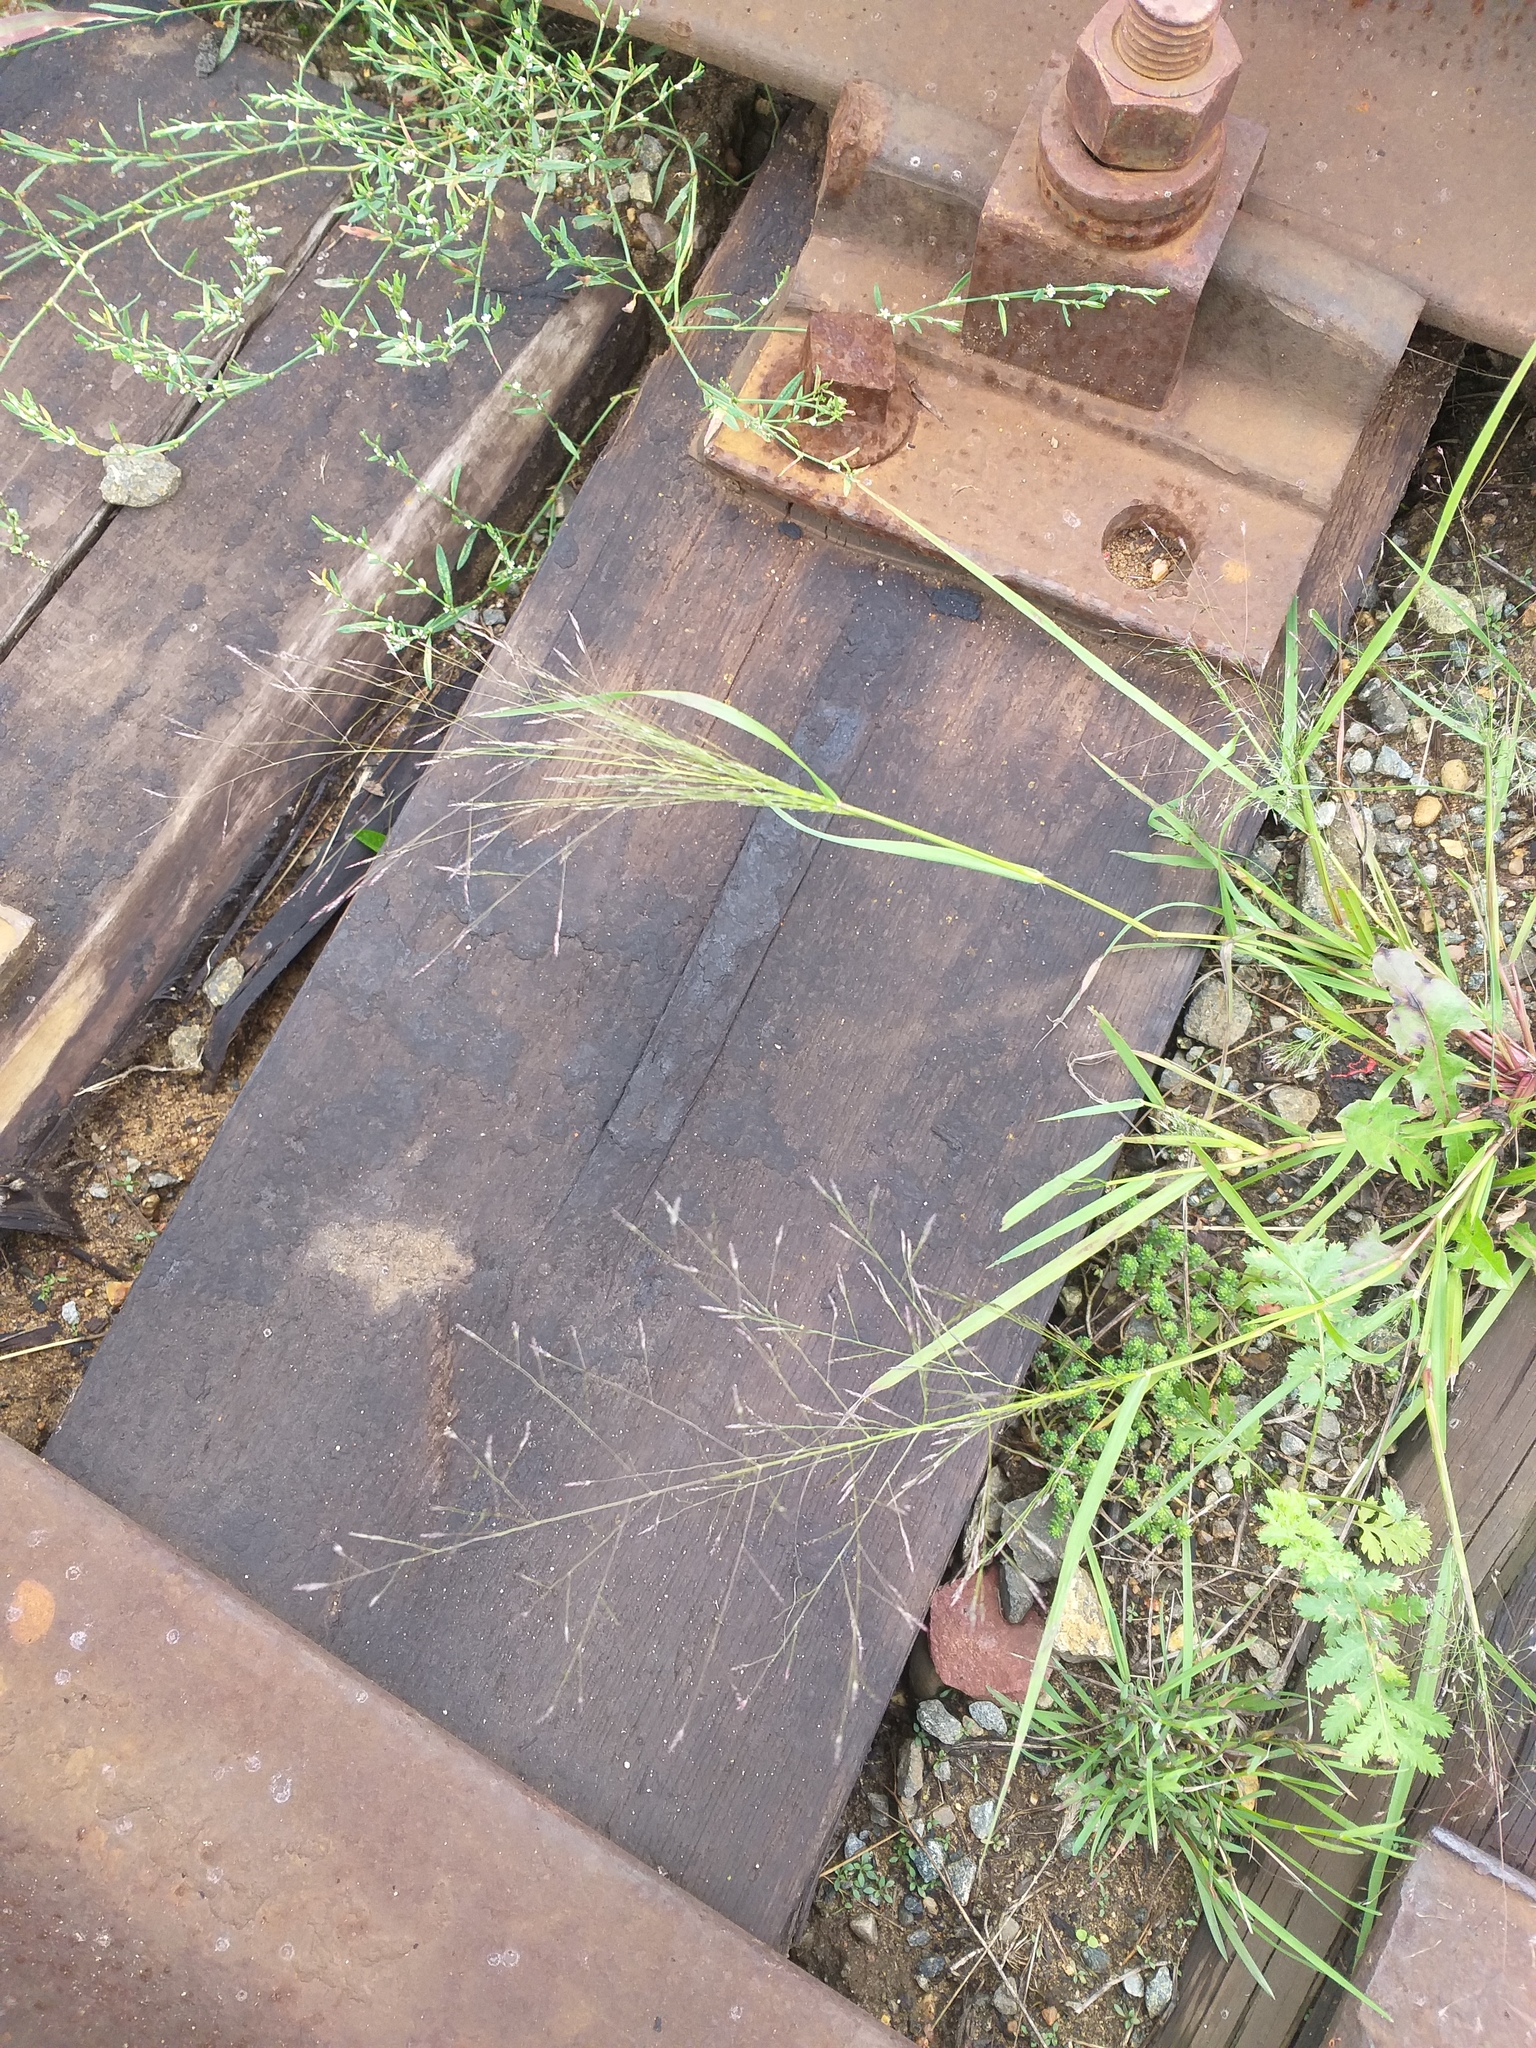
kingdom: Plantae
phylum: Tracheophyta
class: Liliopsida
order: Poales
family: Poaceae
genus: Eragrostis
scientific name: Eragrostis pilosa
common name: Indian lovegrass
